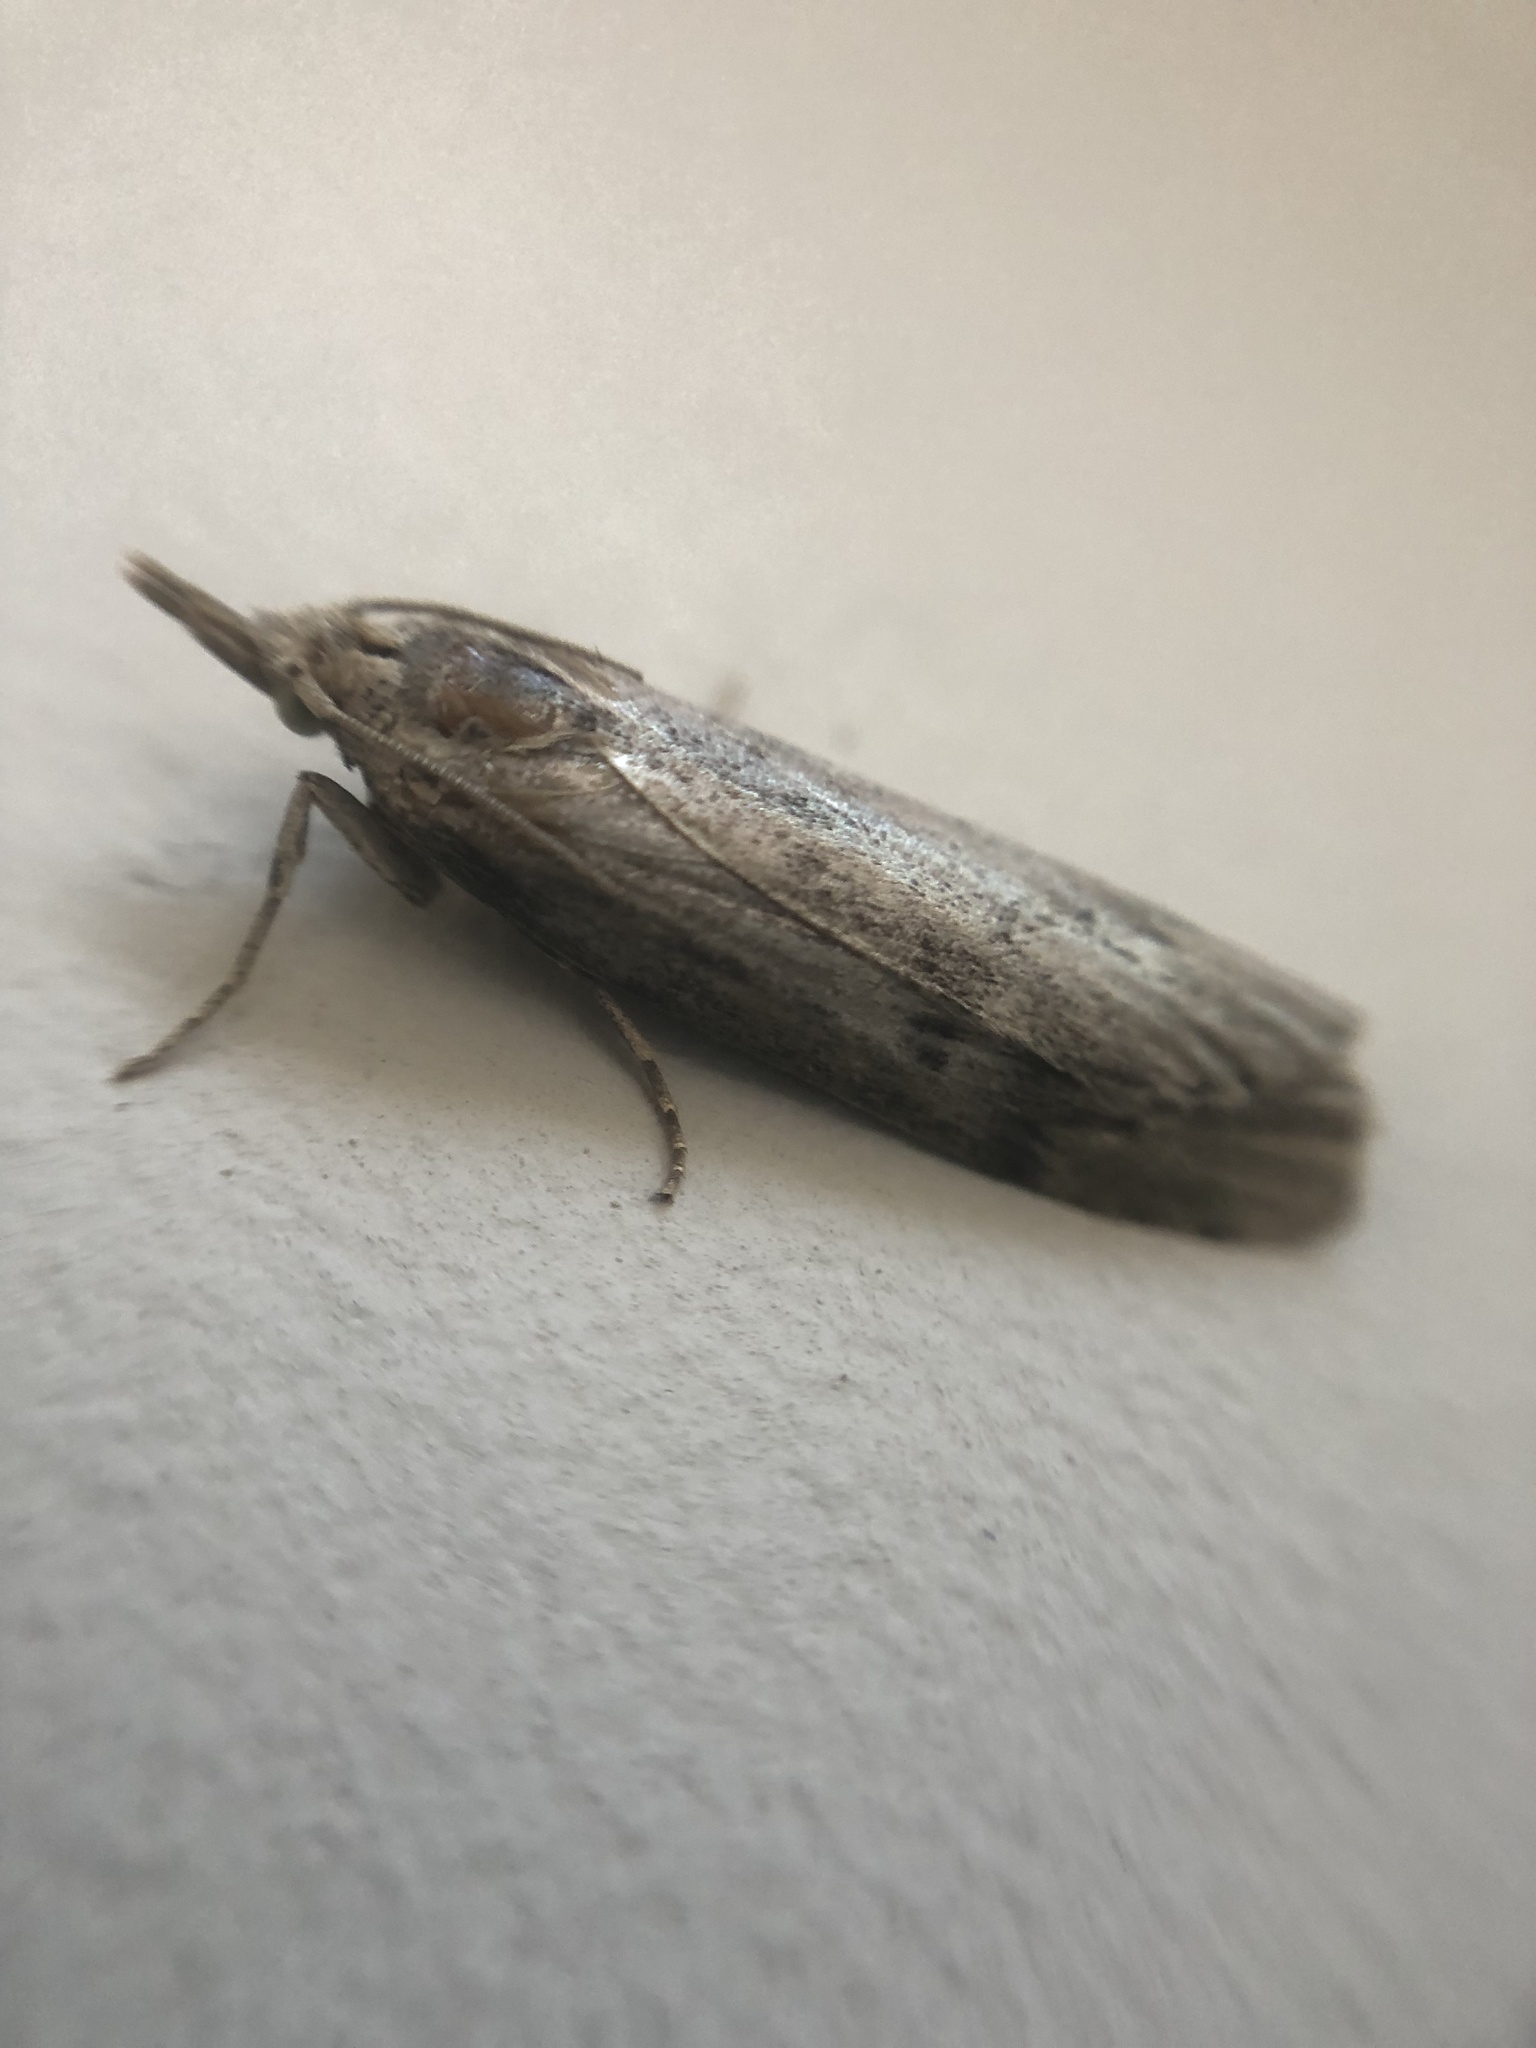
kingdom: Animalia
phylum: Arthropoda
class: Insecta
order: Lepidoptera
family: Pyralidae
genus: Aphomia
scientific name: Aphomia sociella
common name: Bee moth
